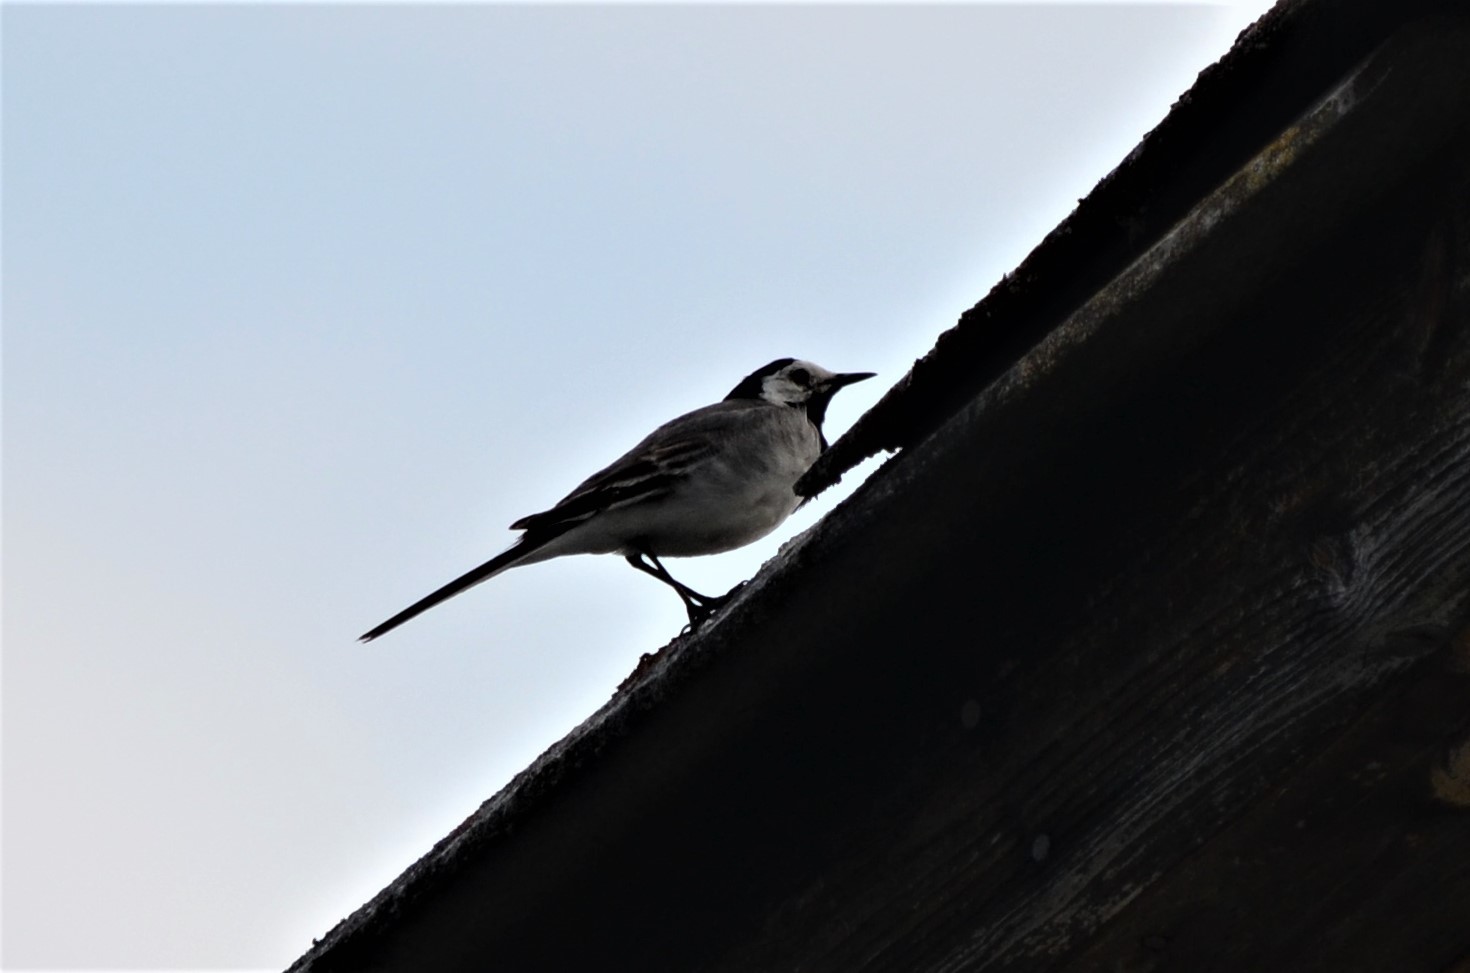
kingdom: Animalia
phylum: Chordata
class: Aves
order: Passeriformes
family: Motacillidae
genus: Motacilla
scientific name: Motacilla alba
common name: White wagtail
